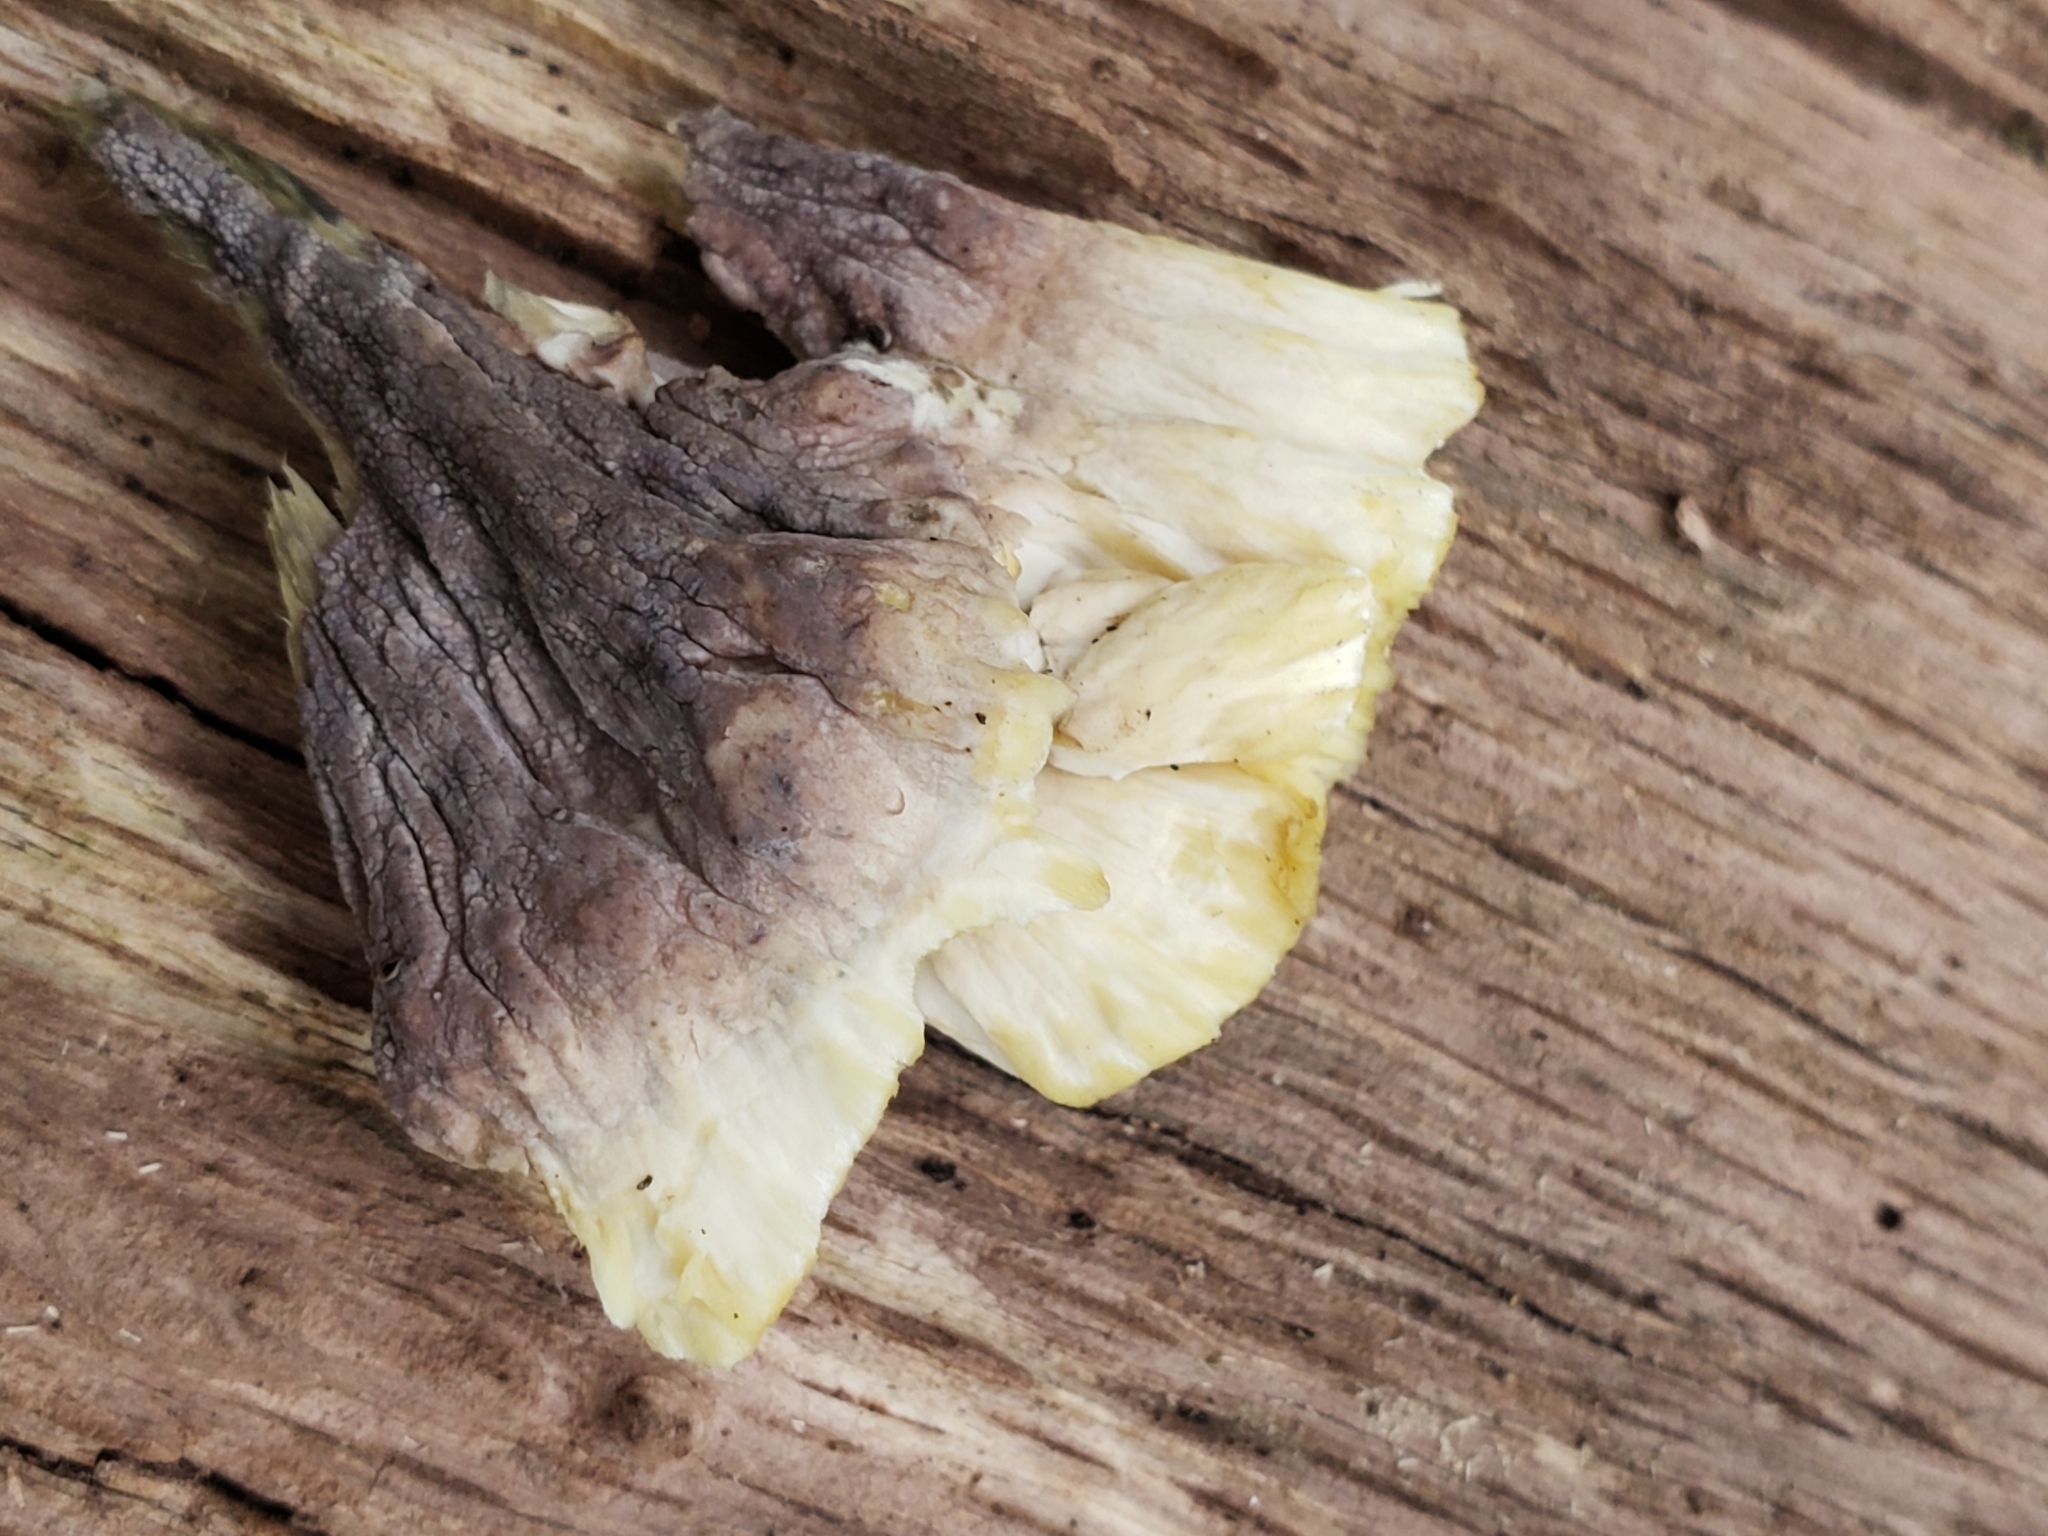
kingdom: Fungi
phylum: Basidiomycota
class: Agaricomycetes
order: Thelephorales
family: Thelephoraceae
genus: Thelephora
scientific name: Thelephora vialis
